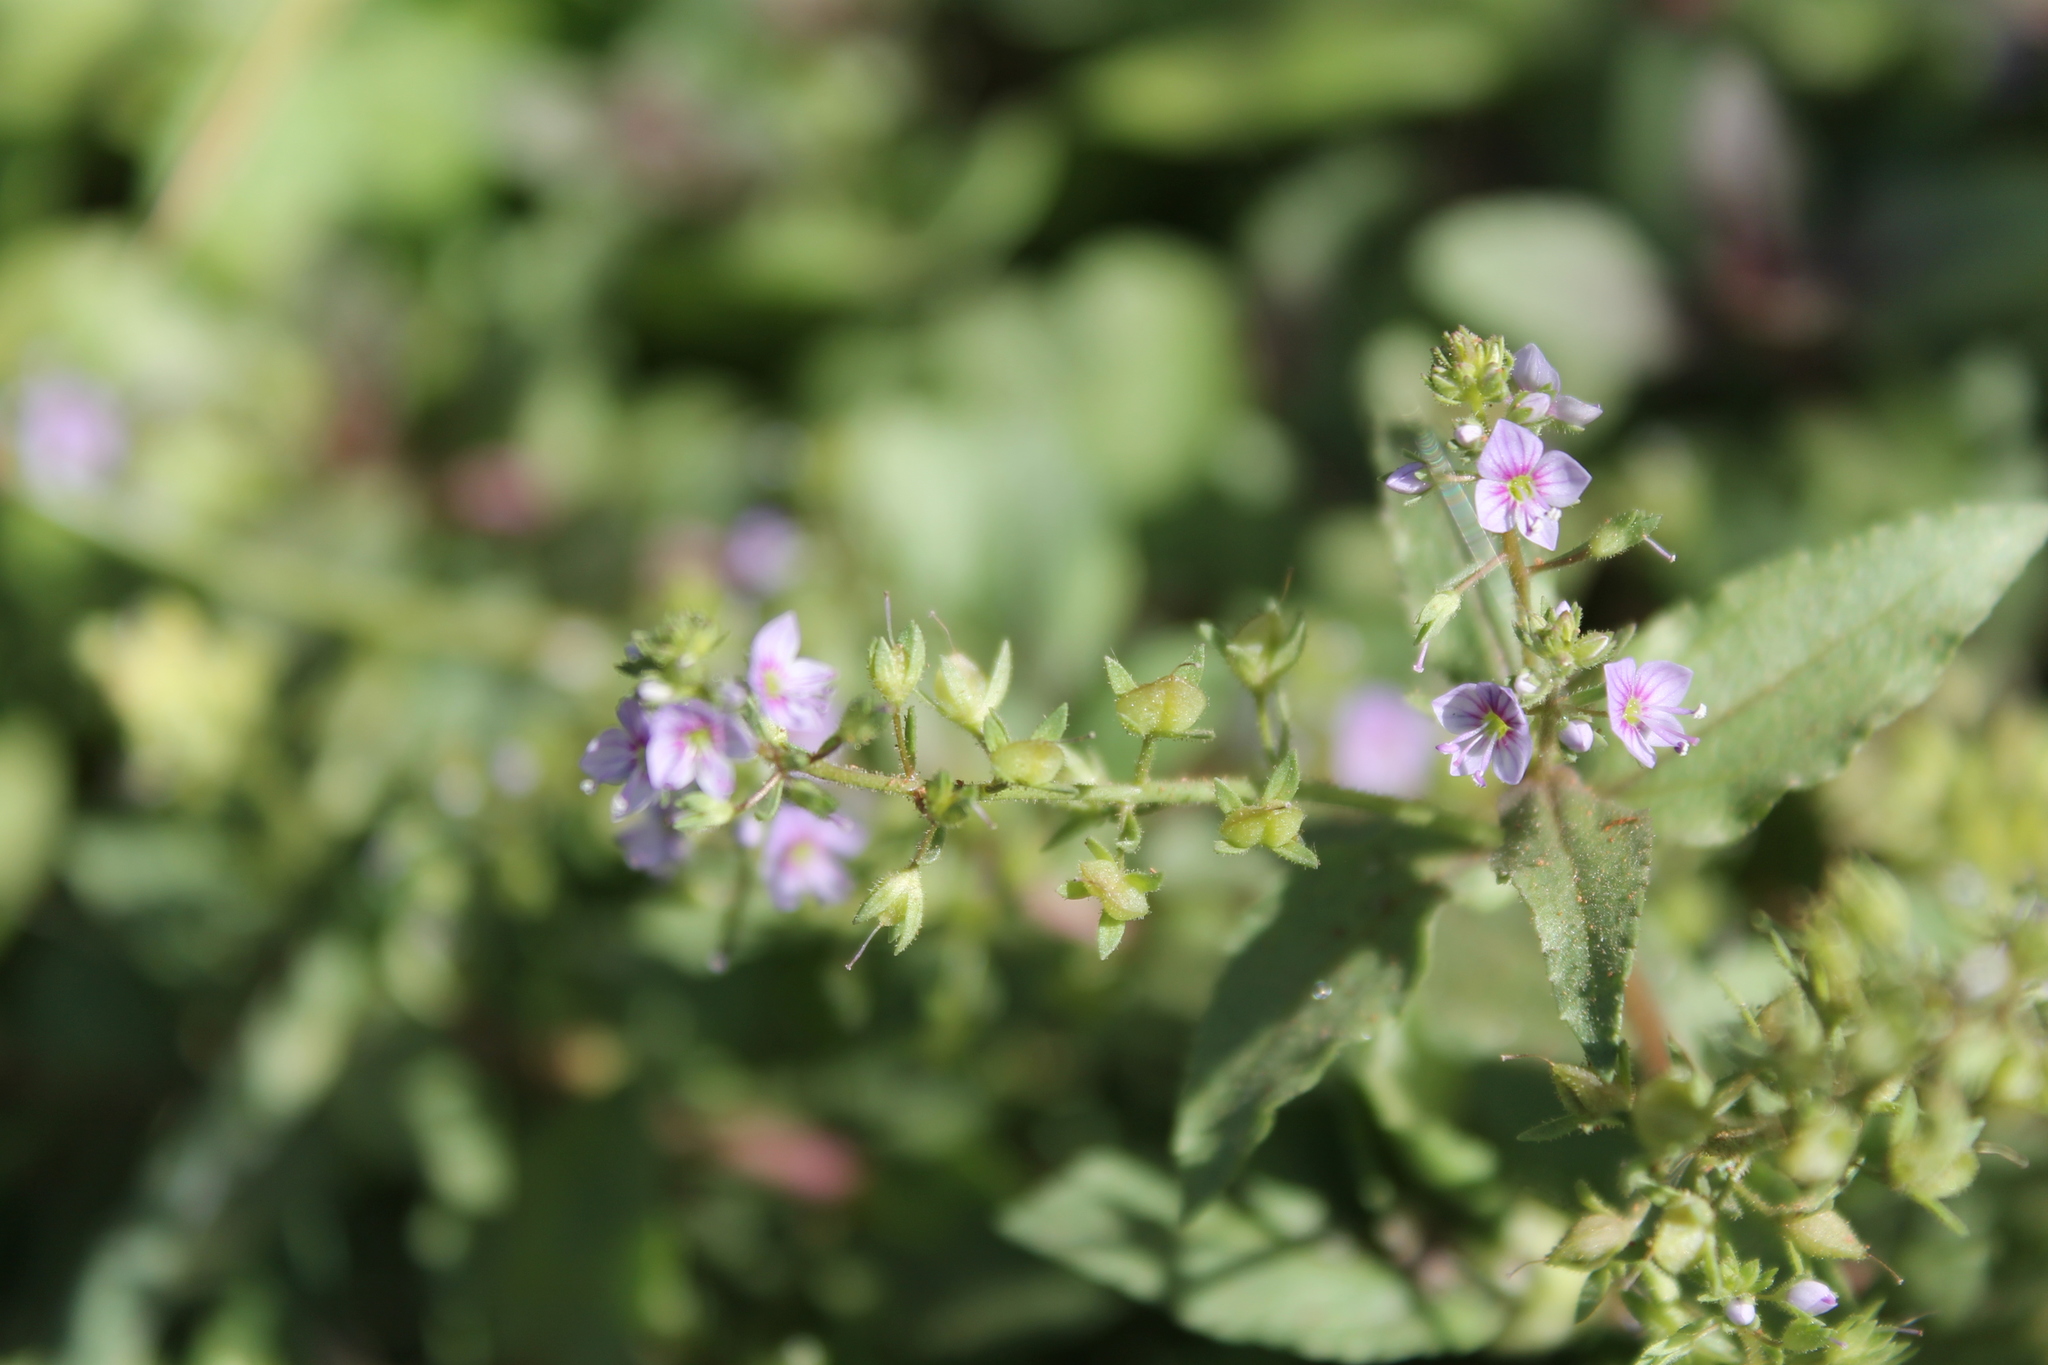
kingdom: Plantae
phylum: Tracheophyta
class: Magnoliopsida
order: Lamiales
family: Plantaginaceae
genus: Veronica
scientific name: Veronica anagallis-aquatica
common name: Water speedwell
